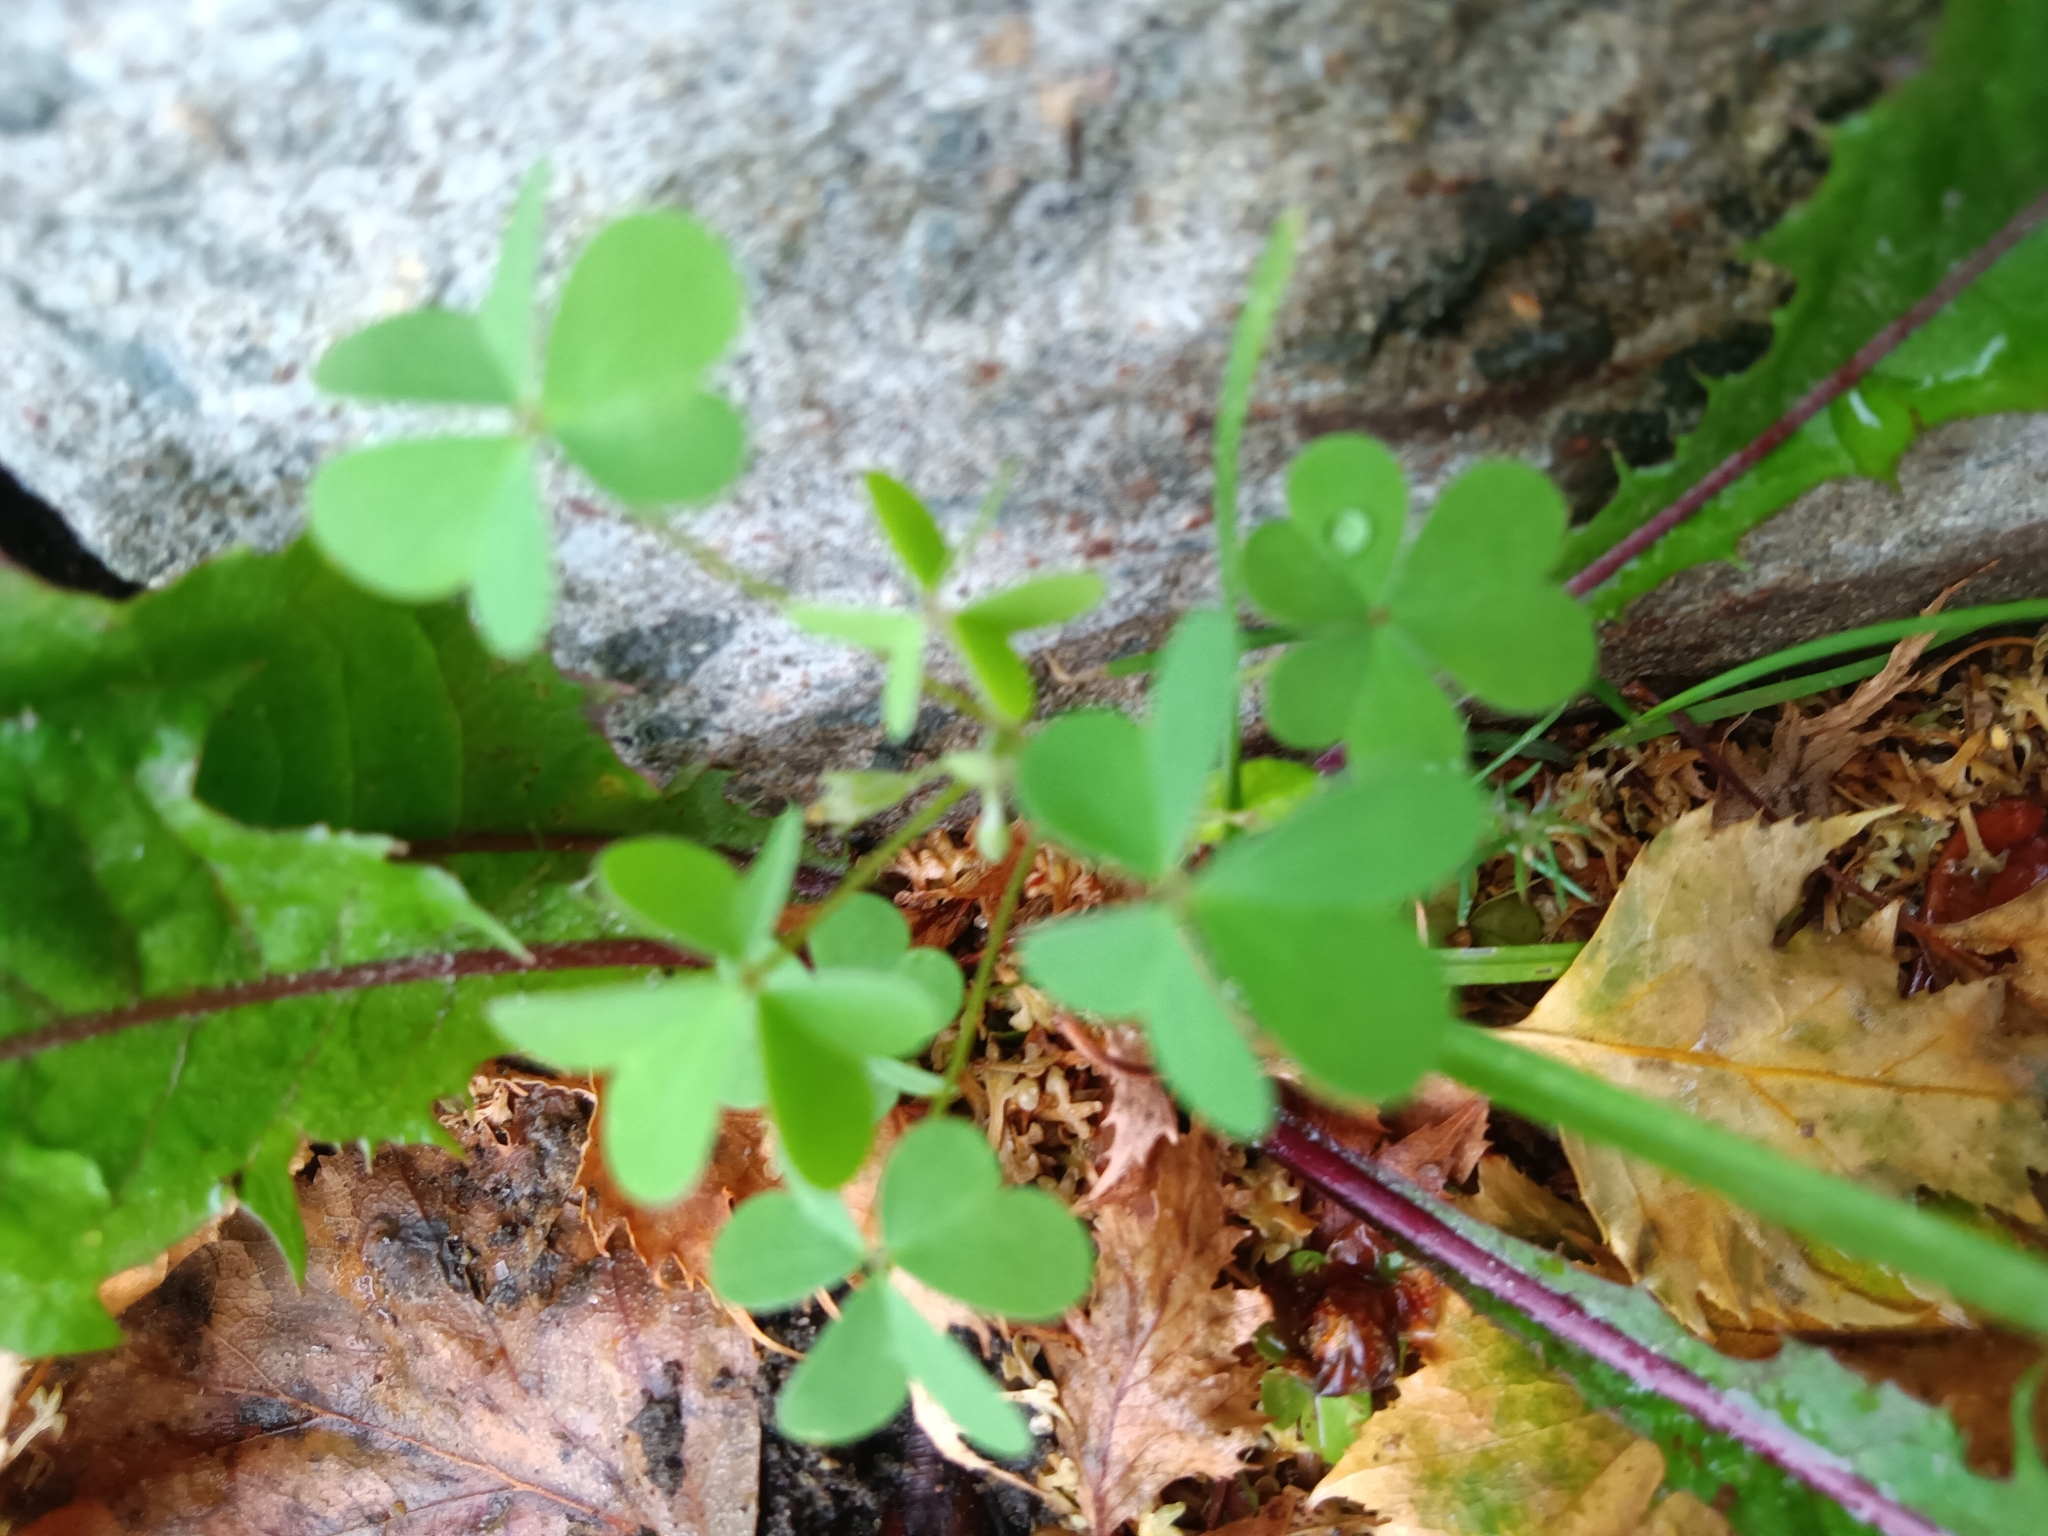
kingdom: Plantae
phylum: Tracheophyta
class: Magnoliopsida
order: Oxalidales
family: Oxalidaceae
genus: Oxalis
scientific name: Oxalis corniculata
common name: Procumbent yellow-sorrel
